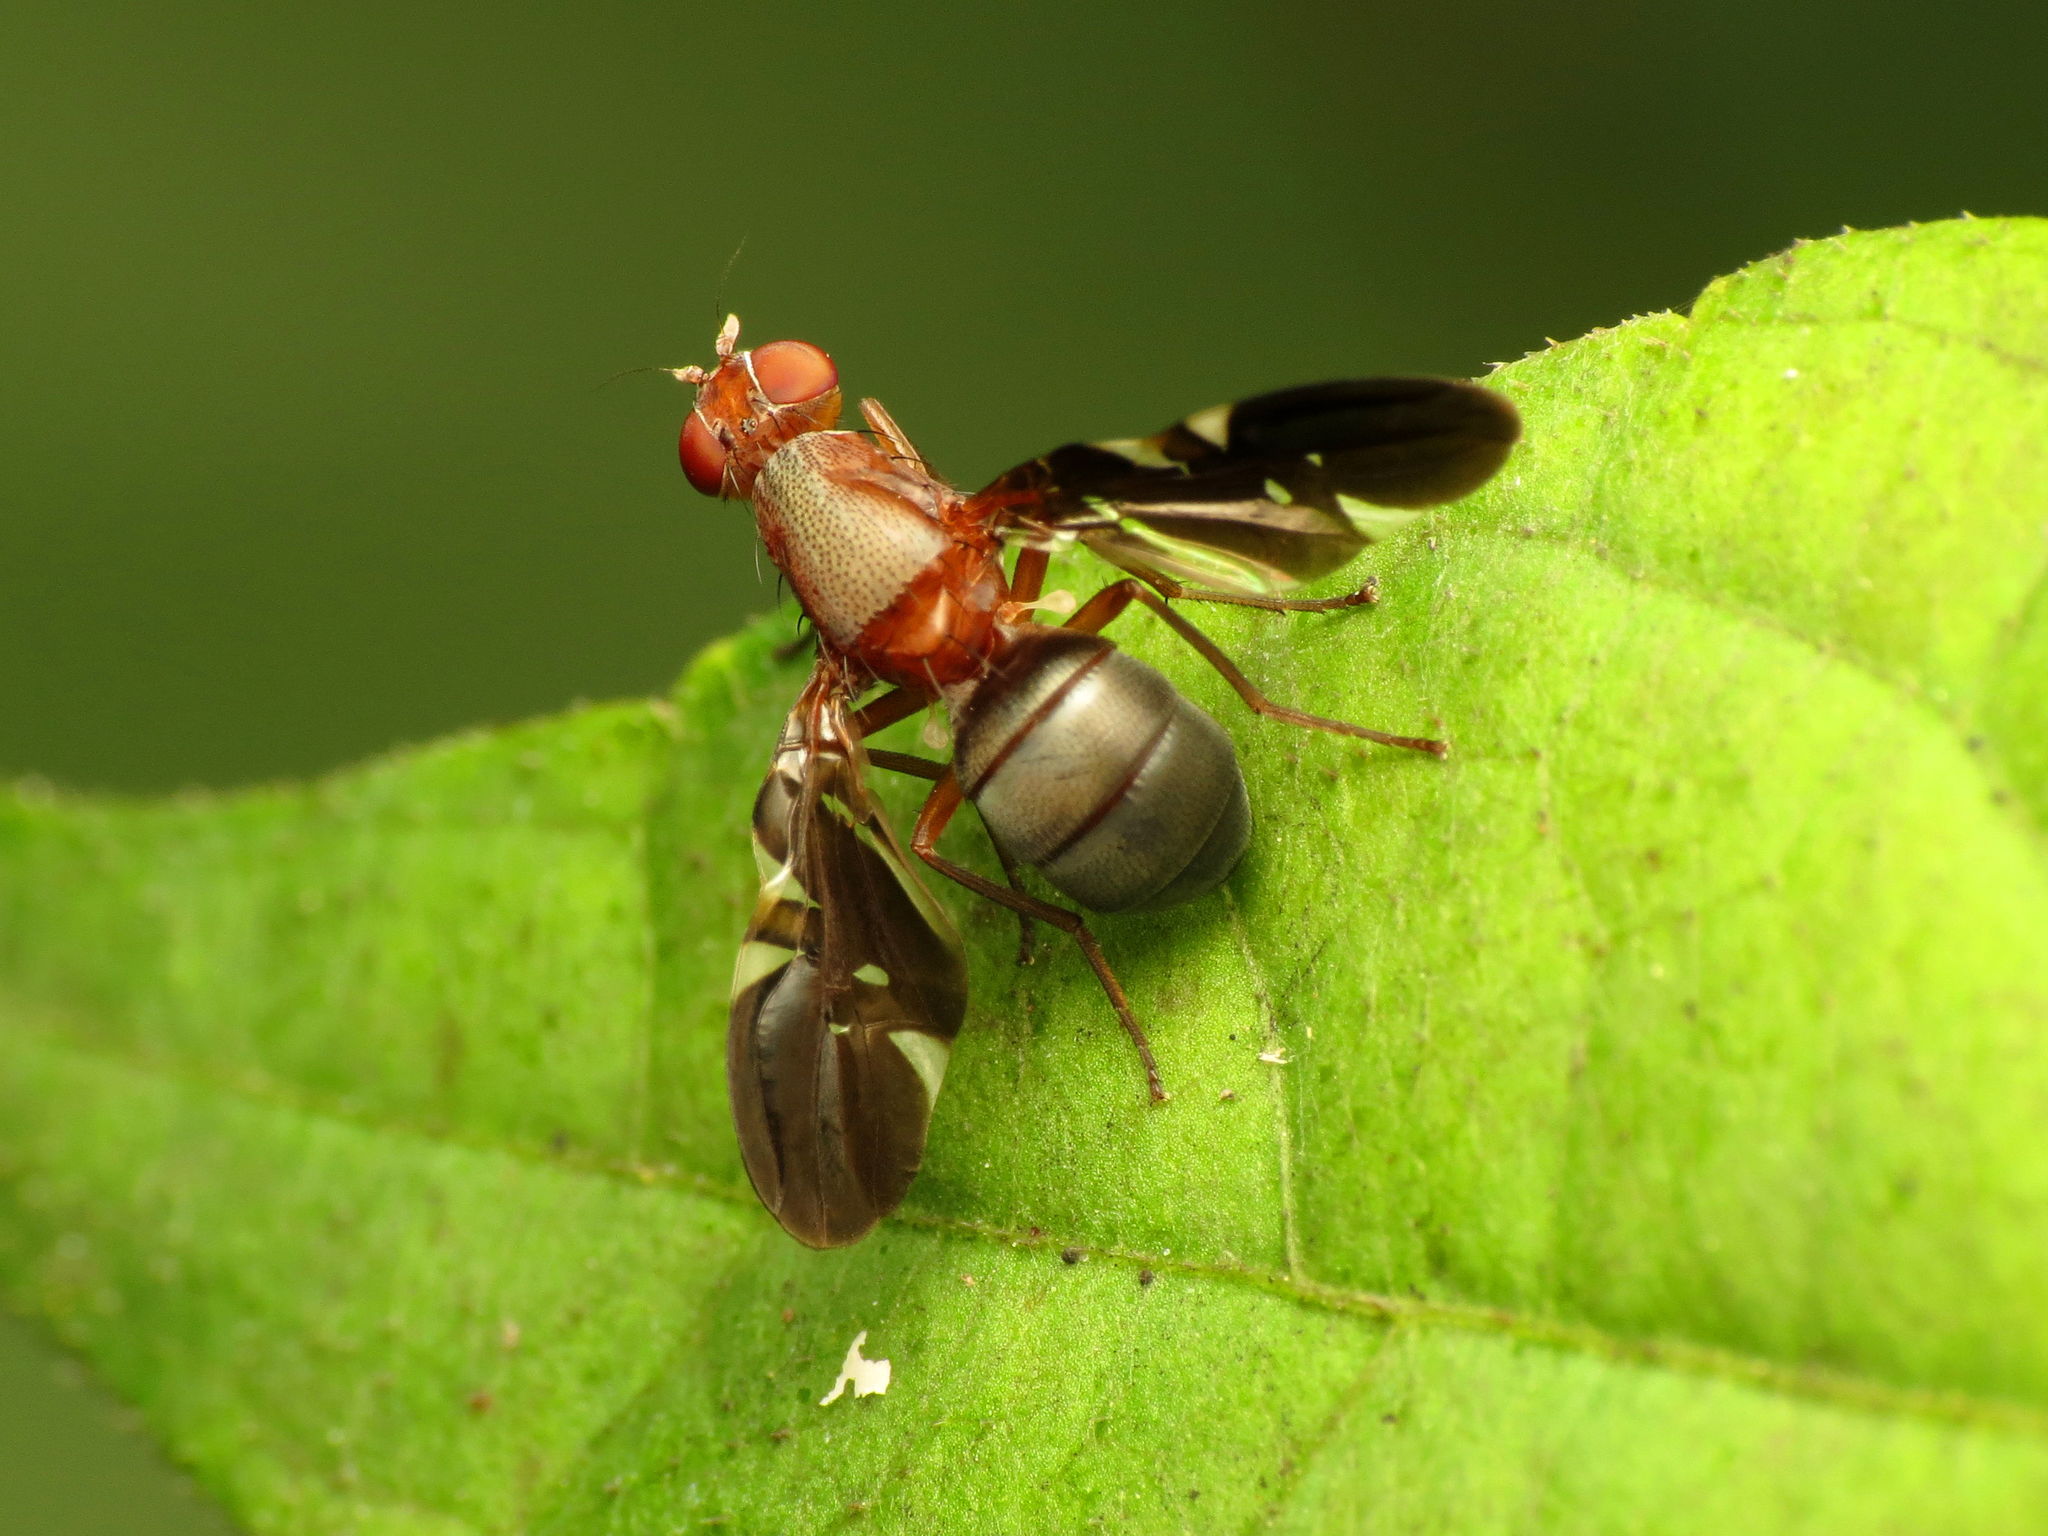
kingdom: Animalia
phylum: Arthropoda
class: Insecta
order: Diptera
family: Ulidiidae
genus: Delphinia
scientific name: Delphinia picta
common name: Common picture-winged fly
